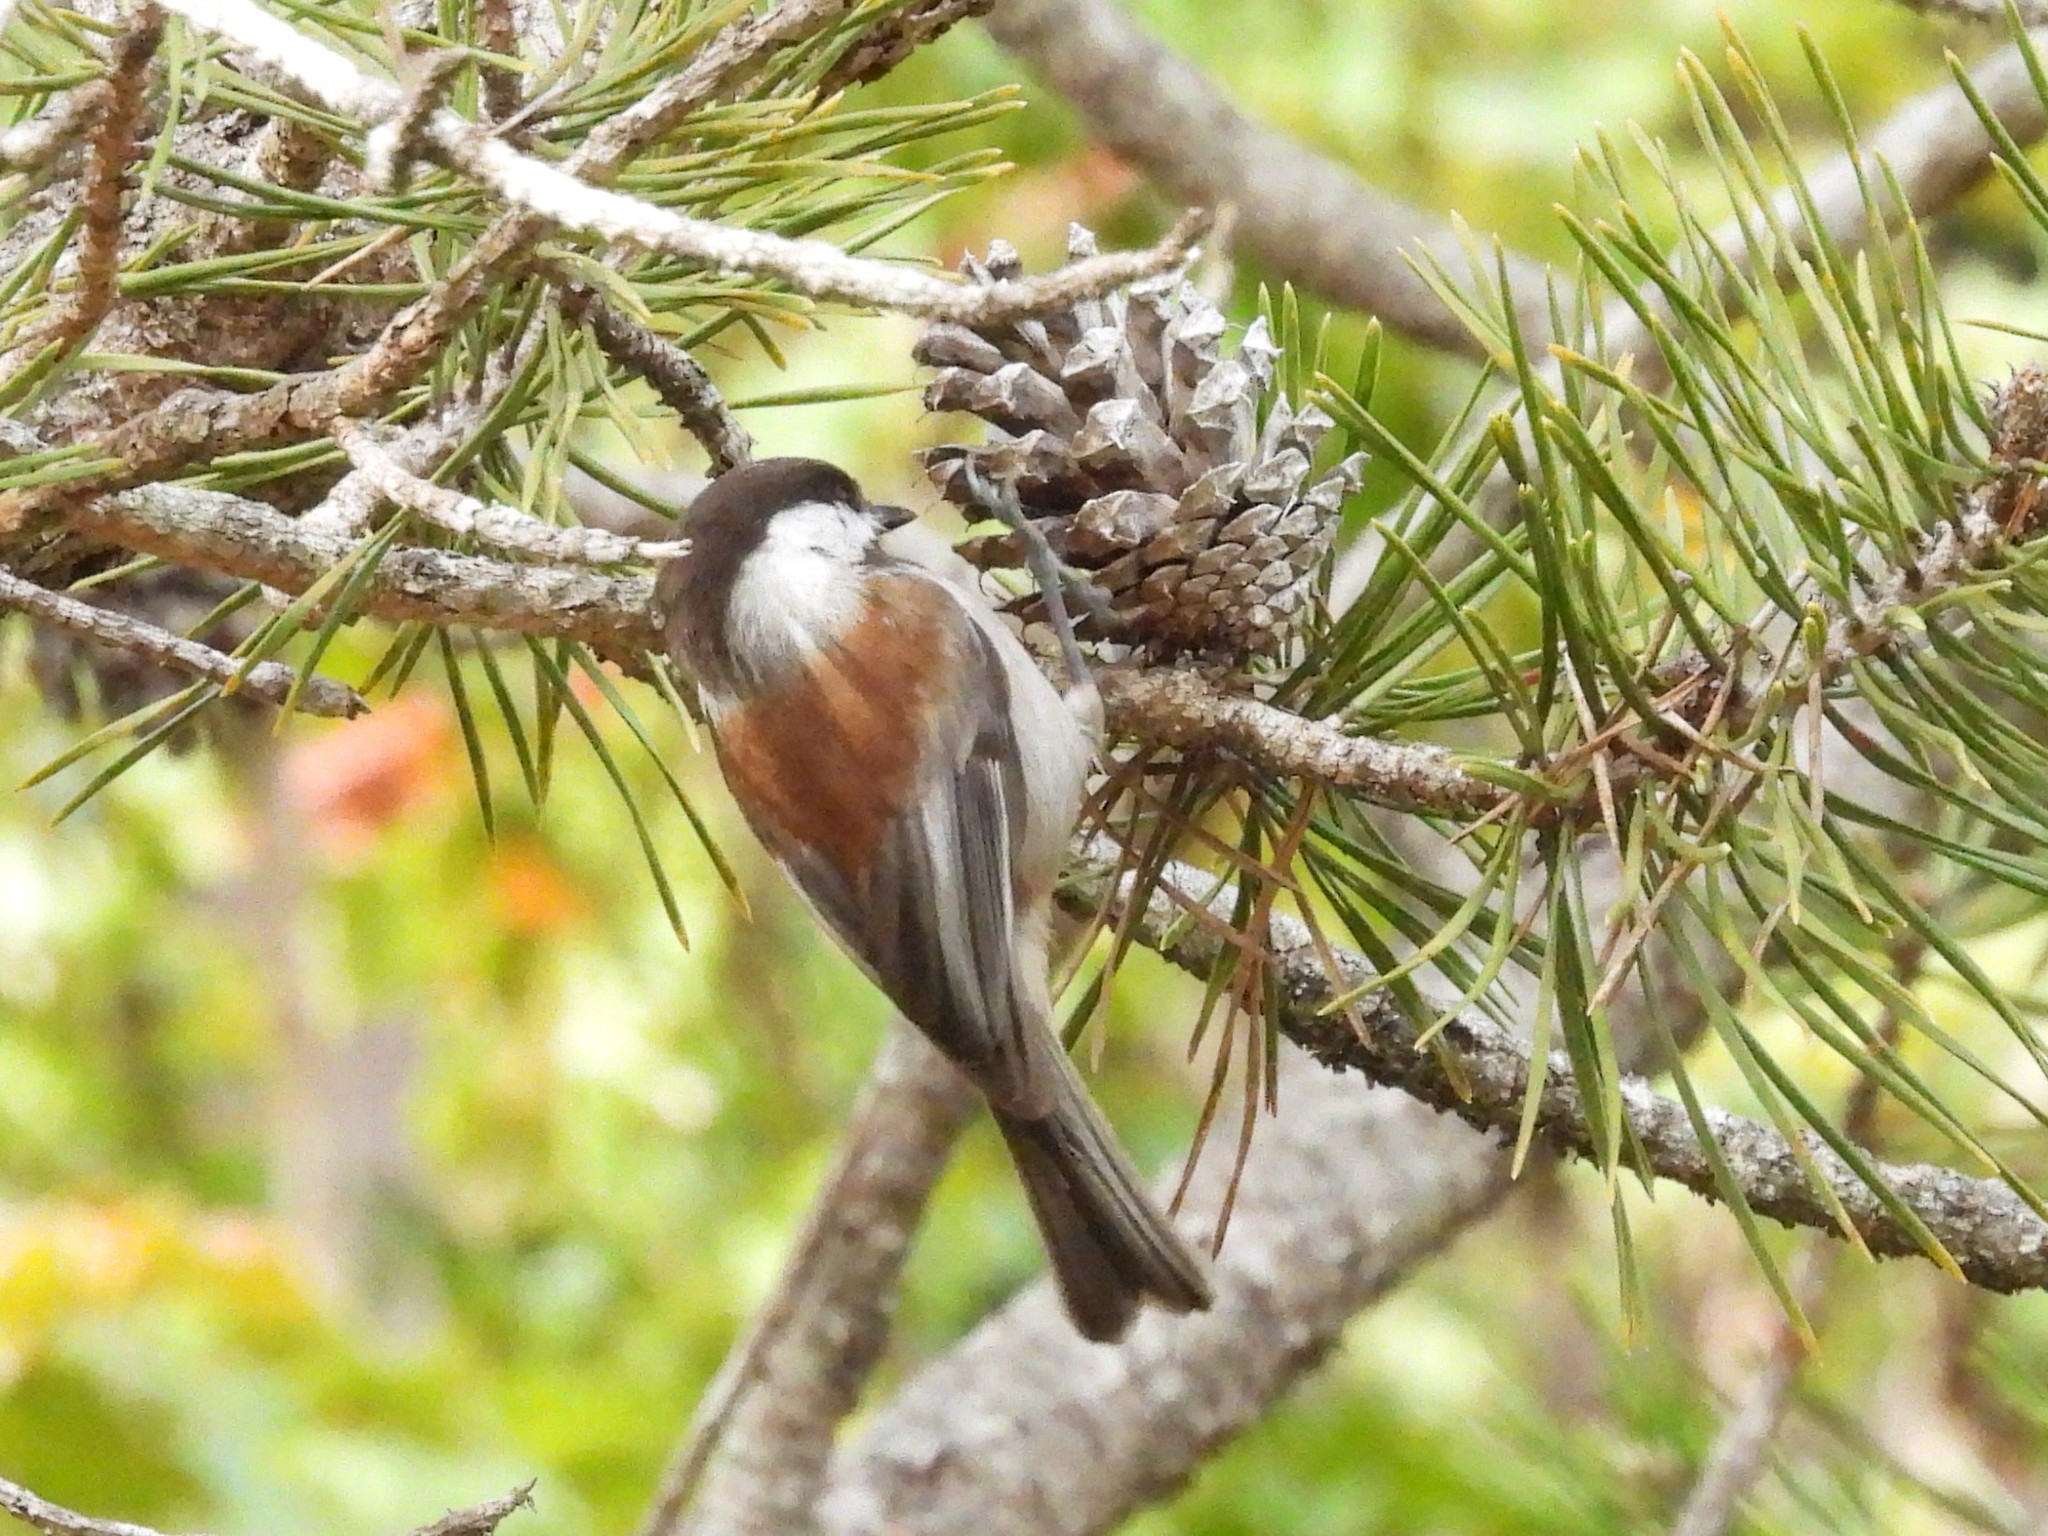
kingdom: Animalia
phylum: Chordata
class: Aves
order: Passeriformes
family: Paridae
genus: Poecile
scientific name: Poecile rufescens
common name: Chestnut-backed chickadee
